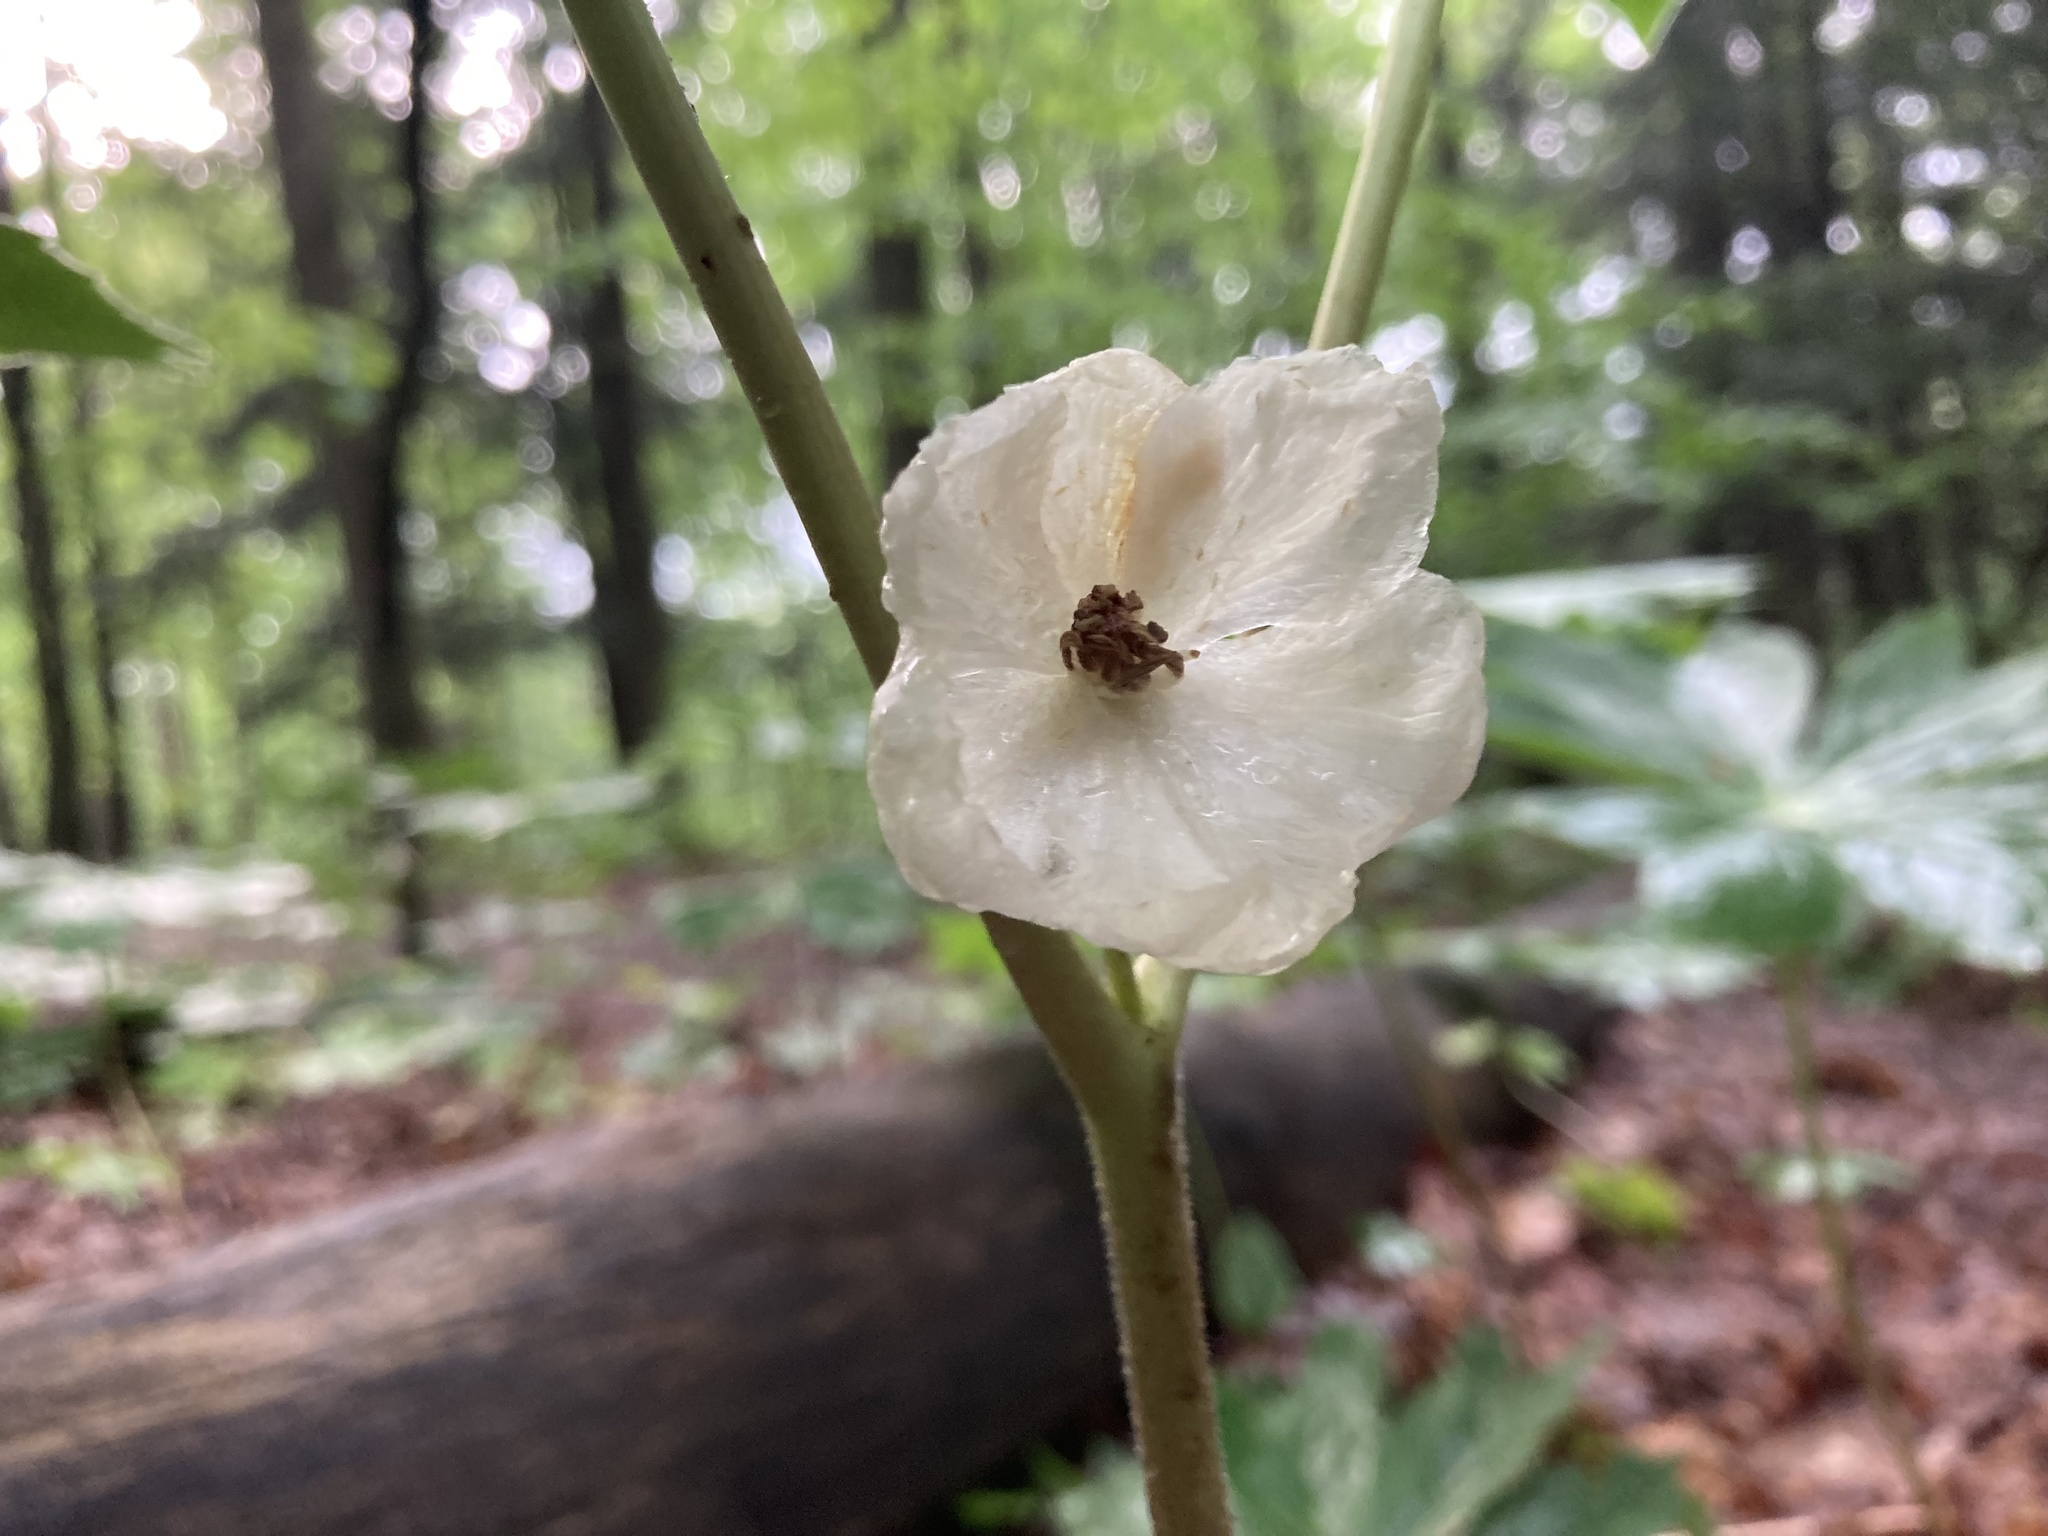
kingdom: Plantae
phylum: Tracheophyta
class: Magnoliopsida
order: Ranunculales
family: Berberidaceae
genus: Podophyllum
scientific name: Podophyllum peltatum
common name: Wild mandrake
